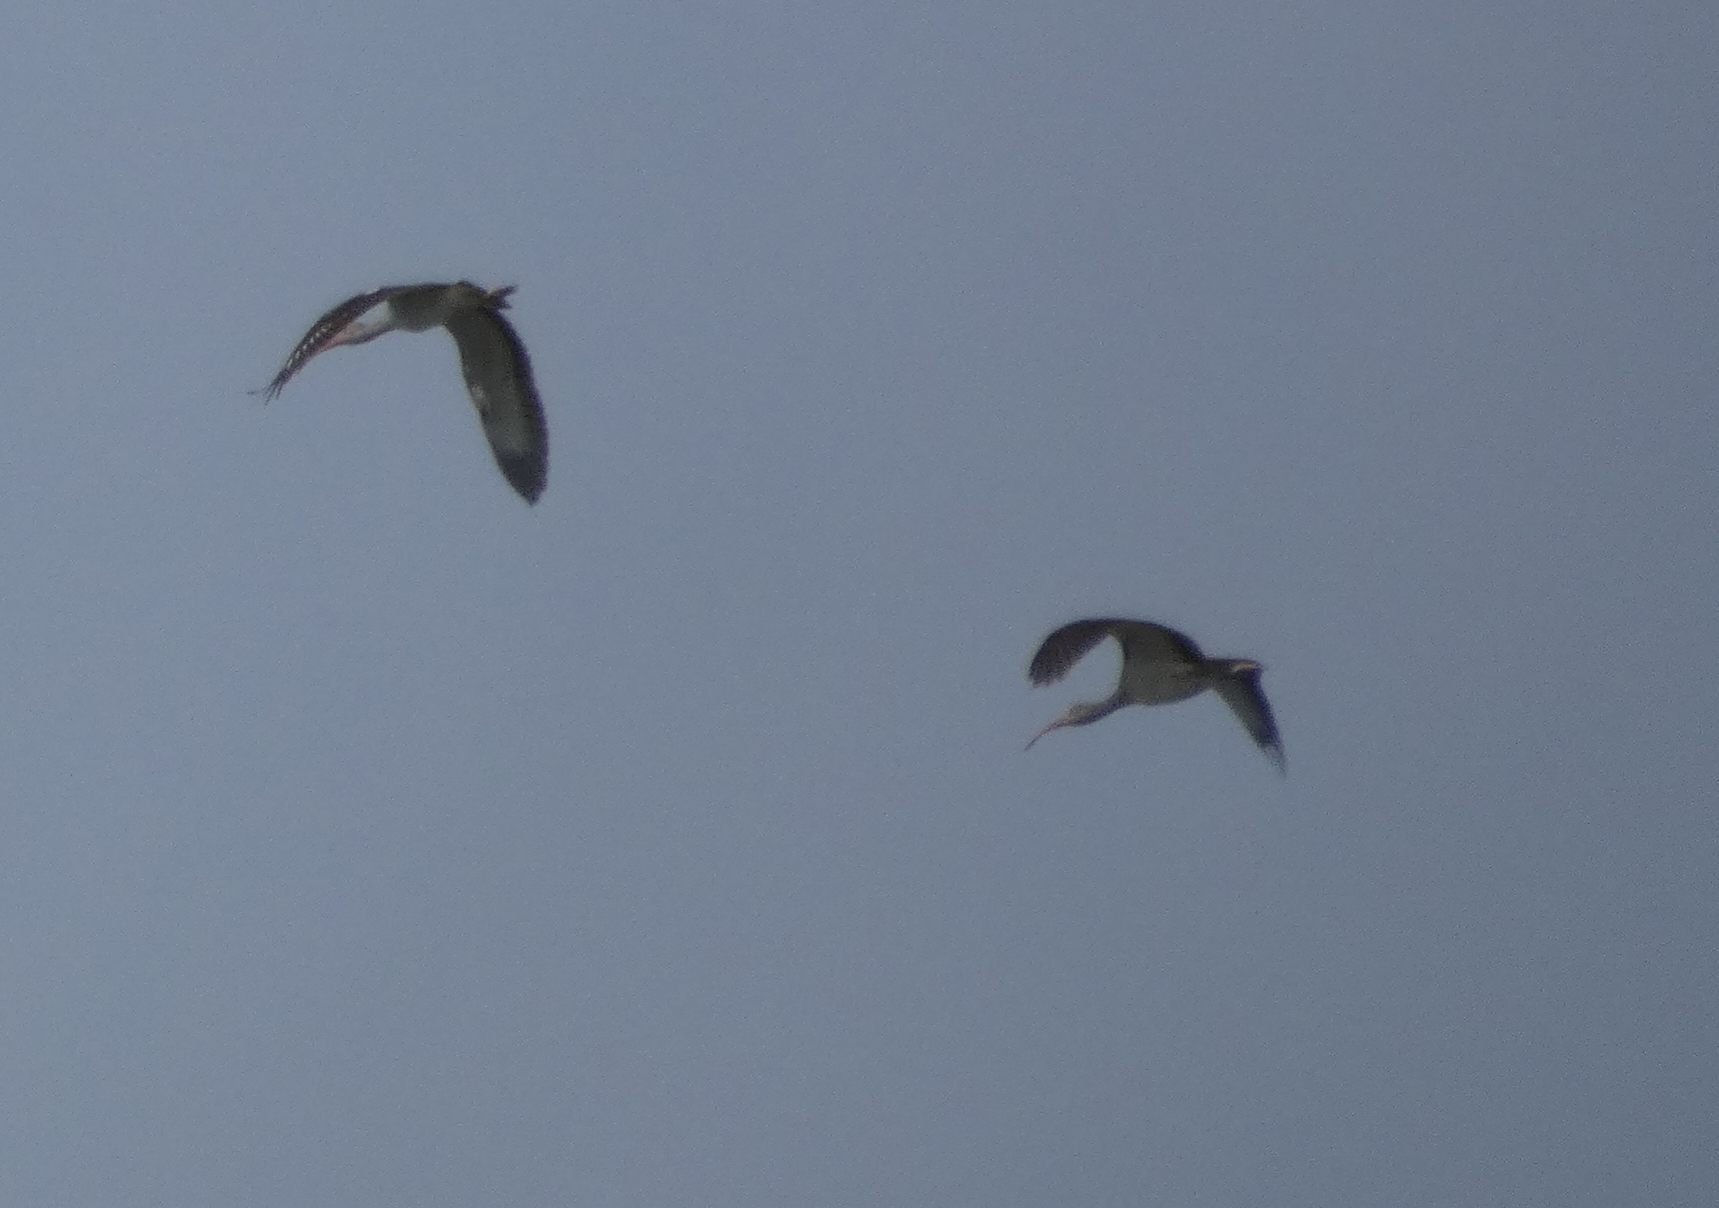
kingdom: Animalia
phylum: Chordata
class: Aves
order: Pelecaniformes
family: Threskiornithidae
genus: Eudocimus
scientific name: Eudocimus albus
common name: White ibis
